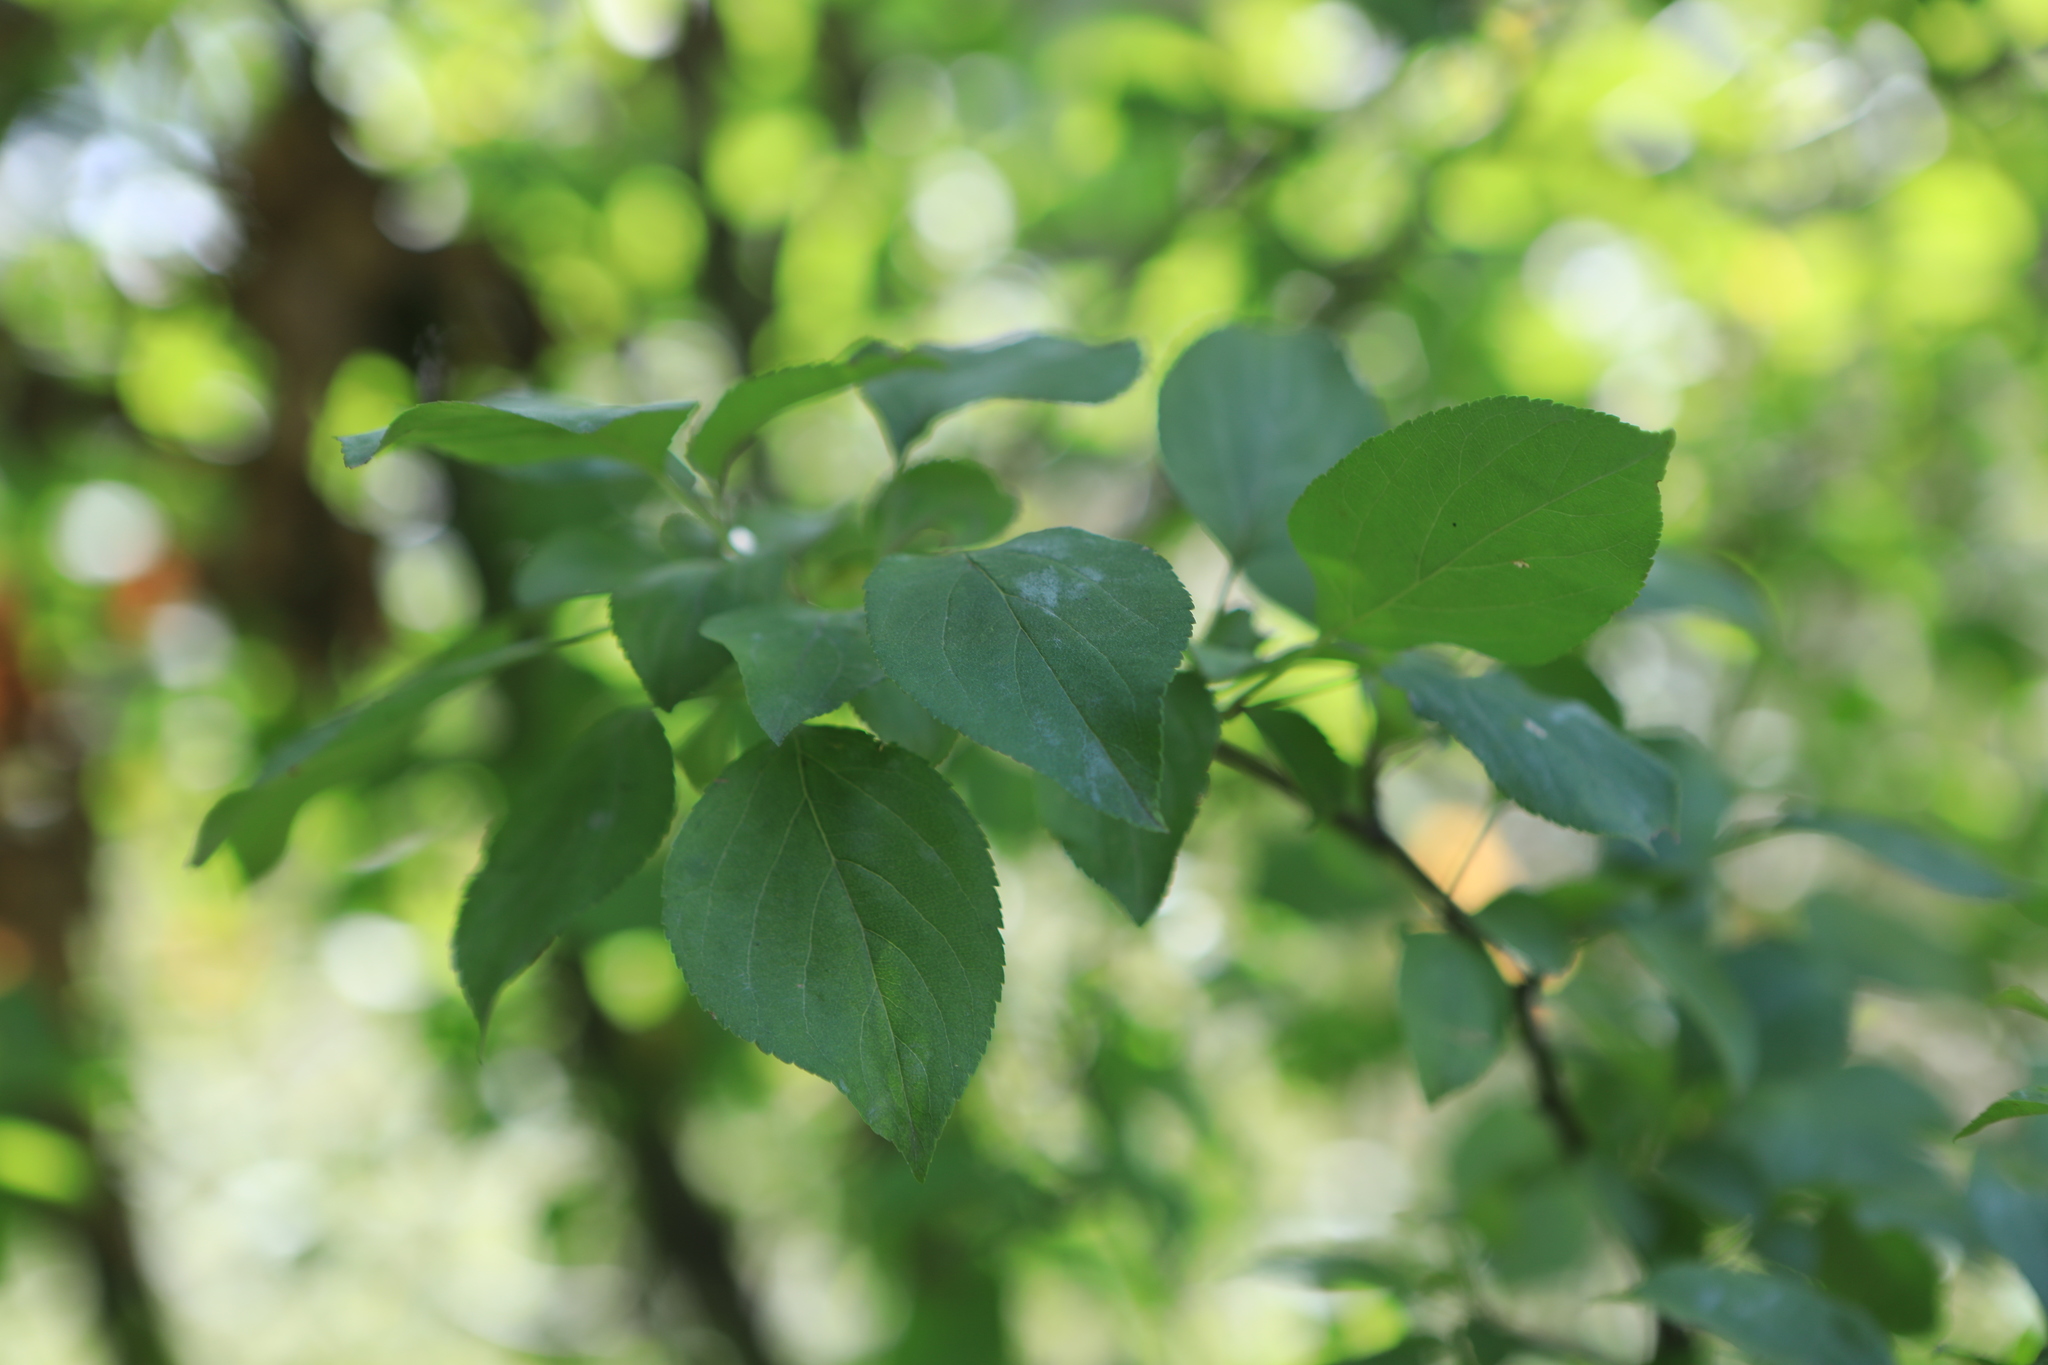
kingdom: Plantae
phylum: Tracheophyta
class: Magnoliopsida
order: Rosales
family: Rosaceae
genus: Malus
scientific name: Malus baccata
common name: Siberian crab
